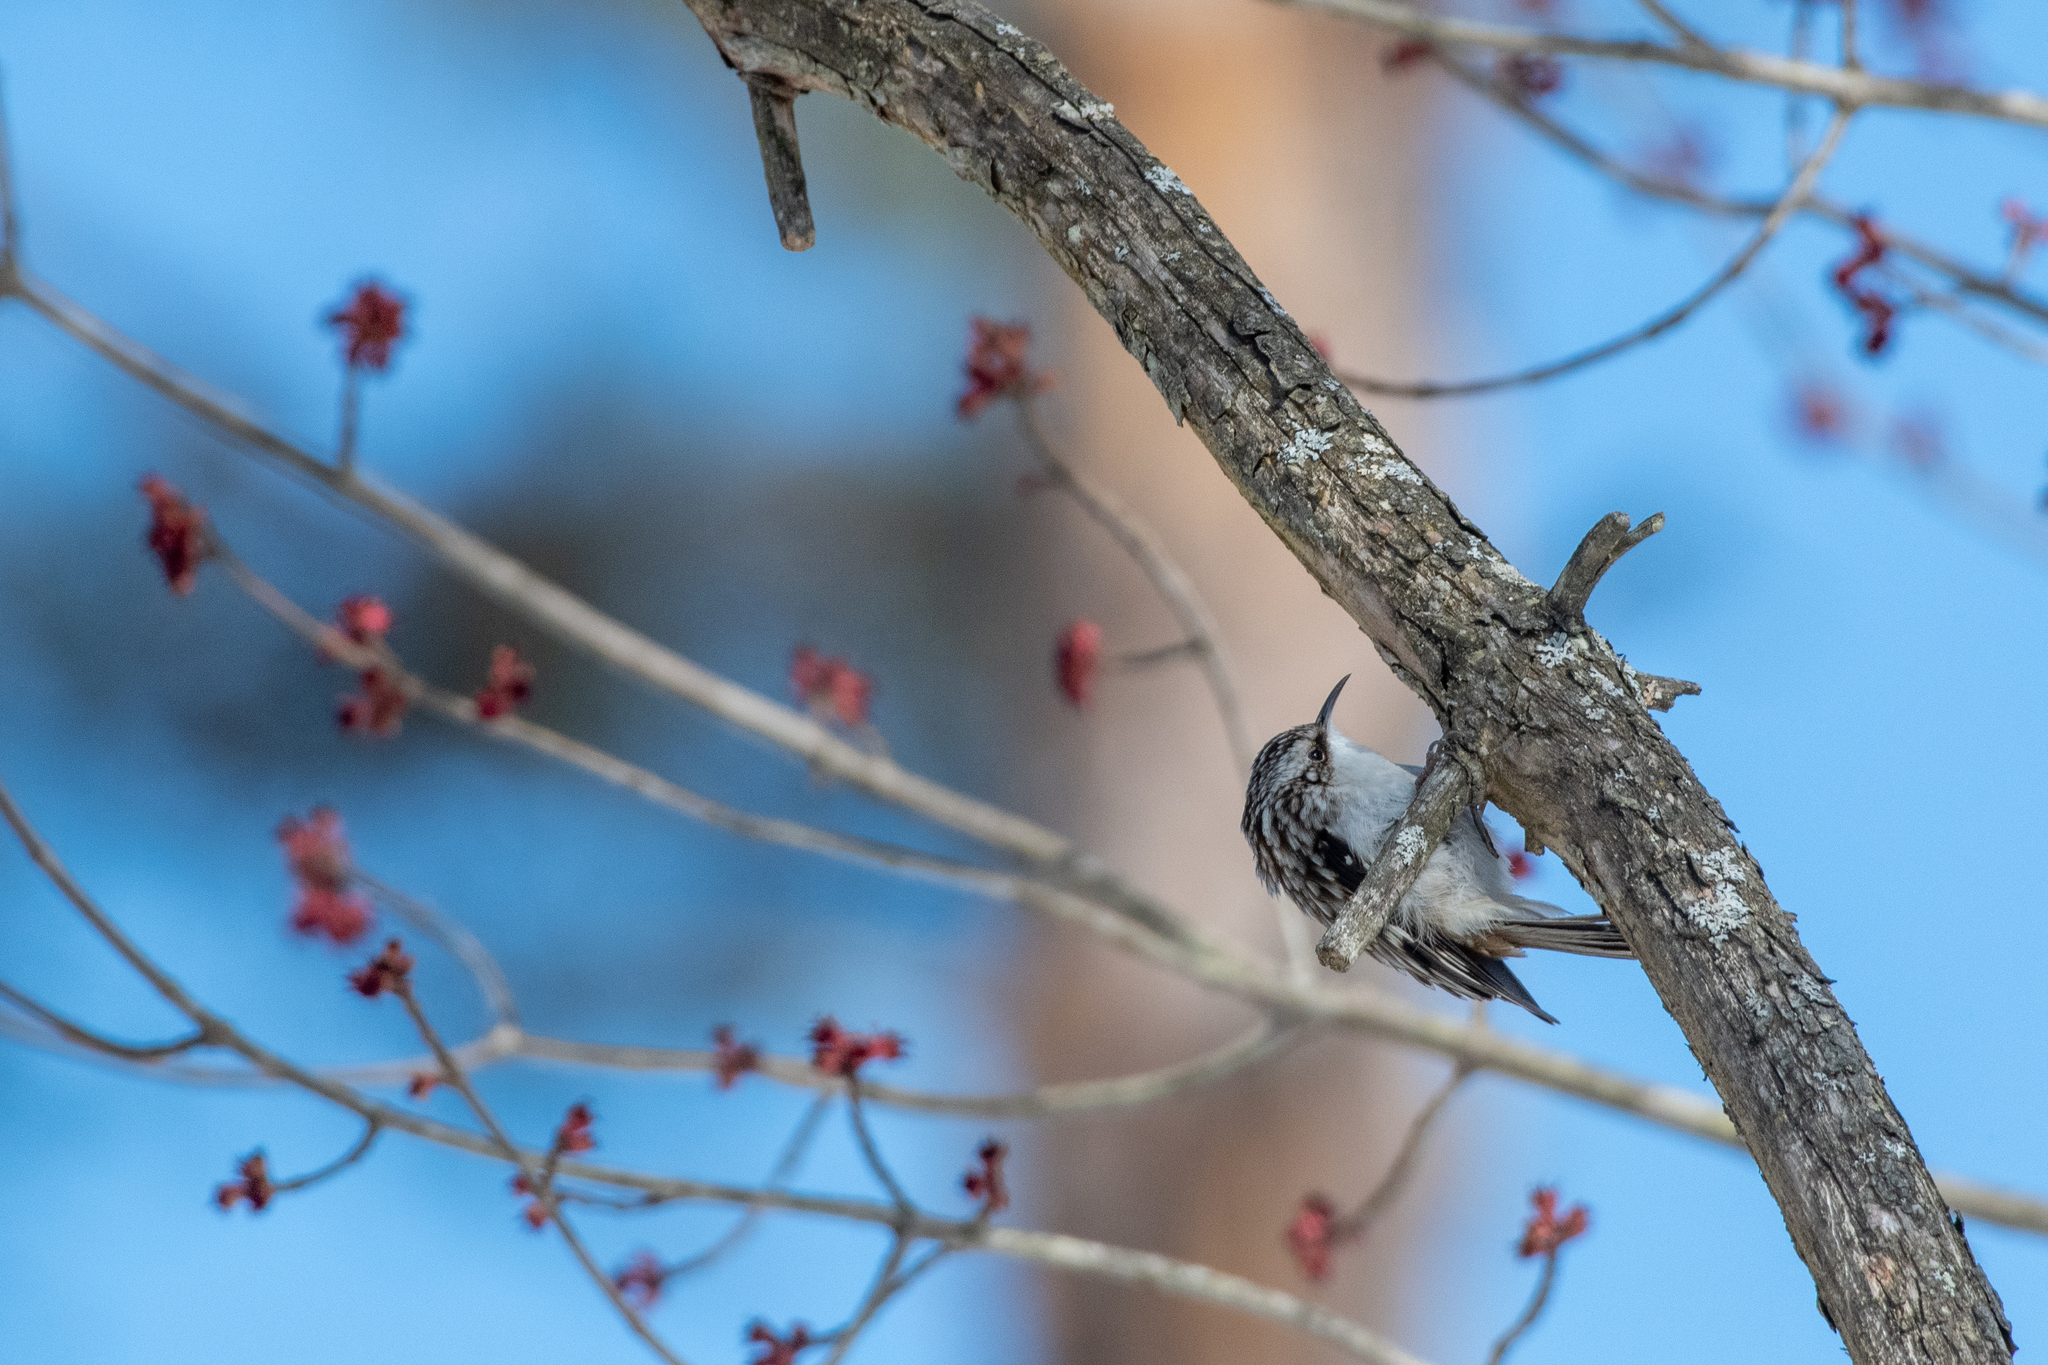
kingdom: Animalia
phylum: Chordata
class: Aves
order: Passeriformes
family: Certhiidae
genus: Certhia
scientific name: Certhia americana
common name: Brown creeper
